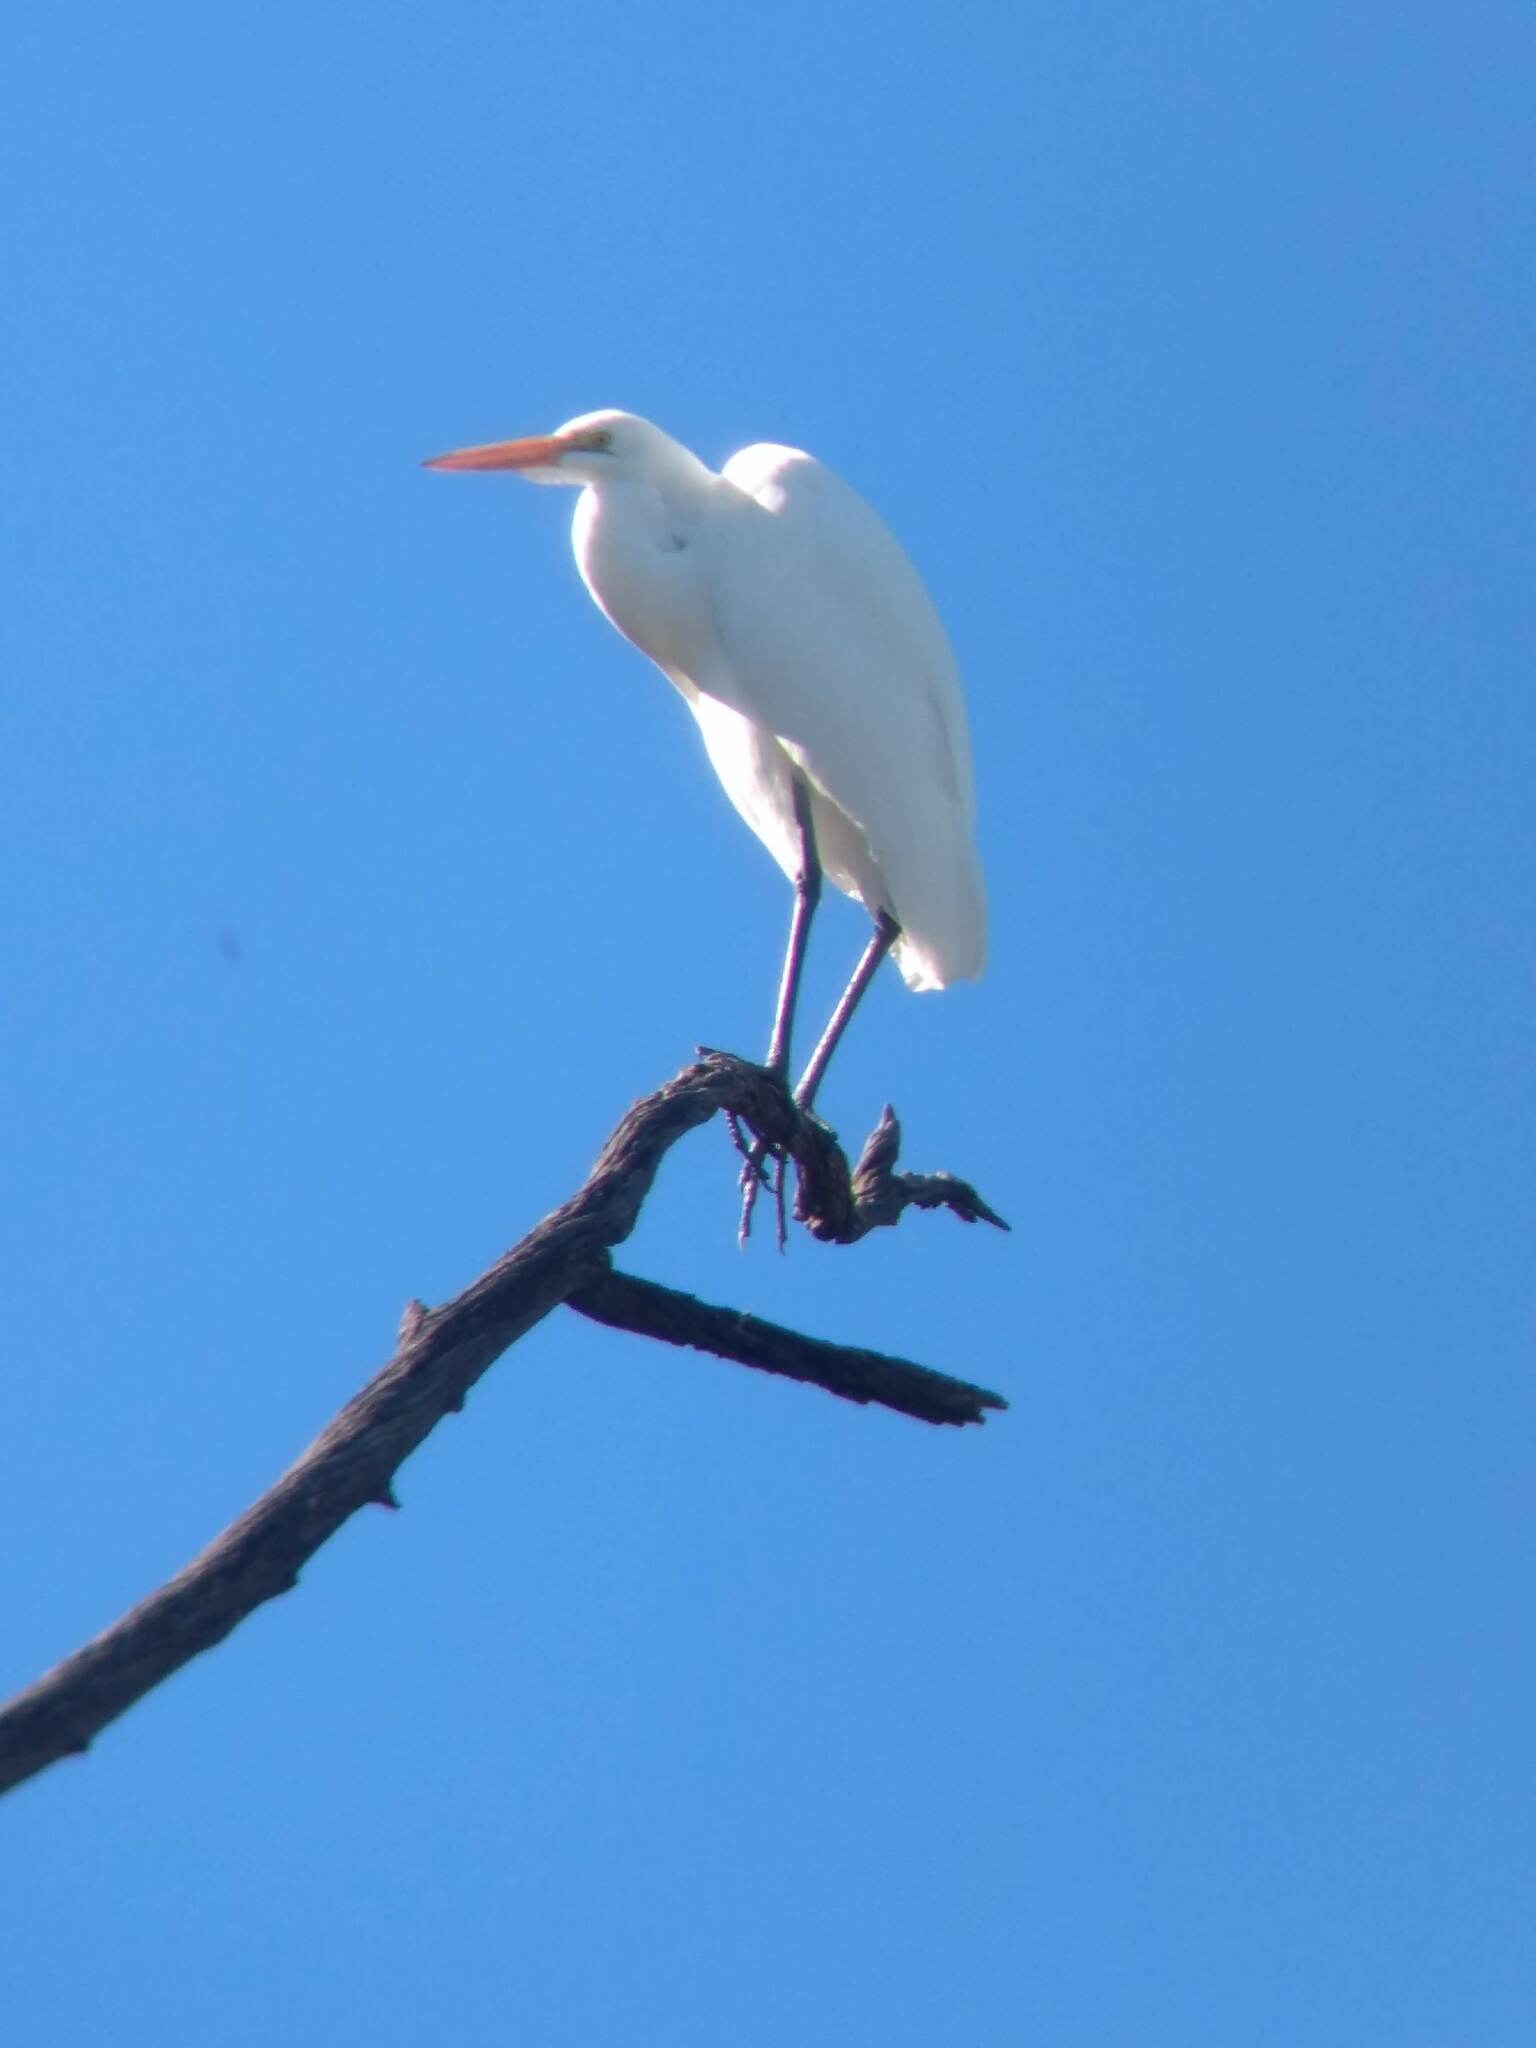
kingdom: Animalia
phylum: Chordata
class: Aves
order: Pelecaniformes
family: Ardeidae
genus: Ardea
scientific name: Ardea alba
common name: Great egret
